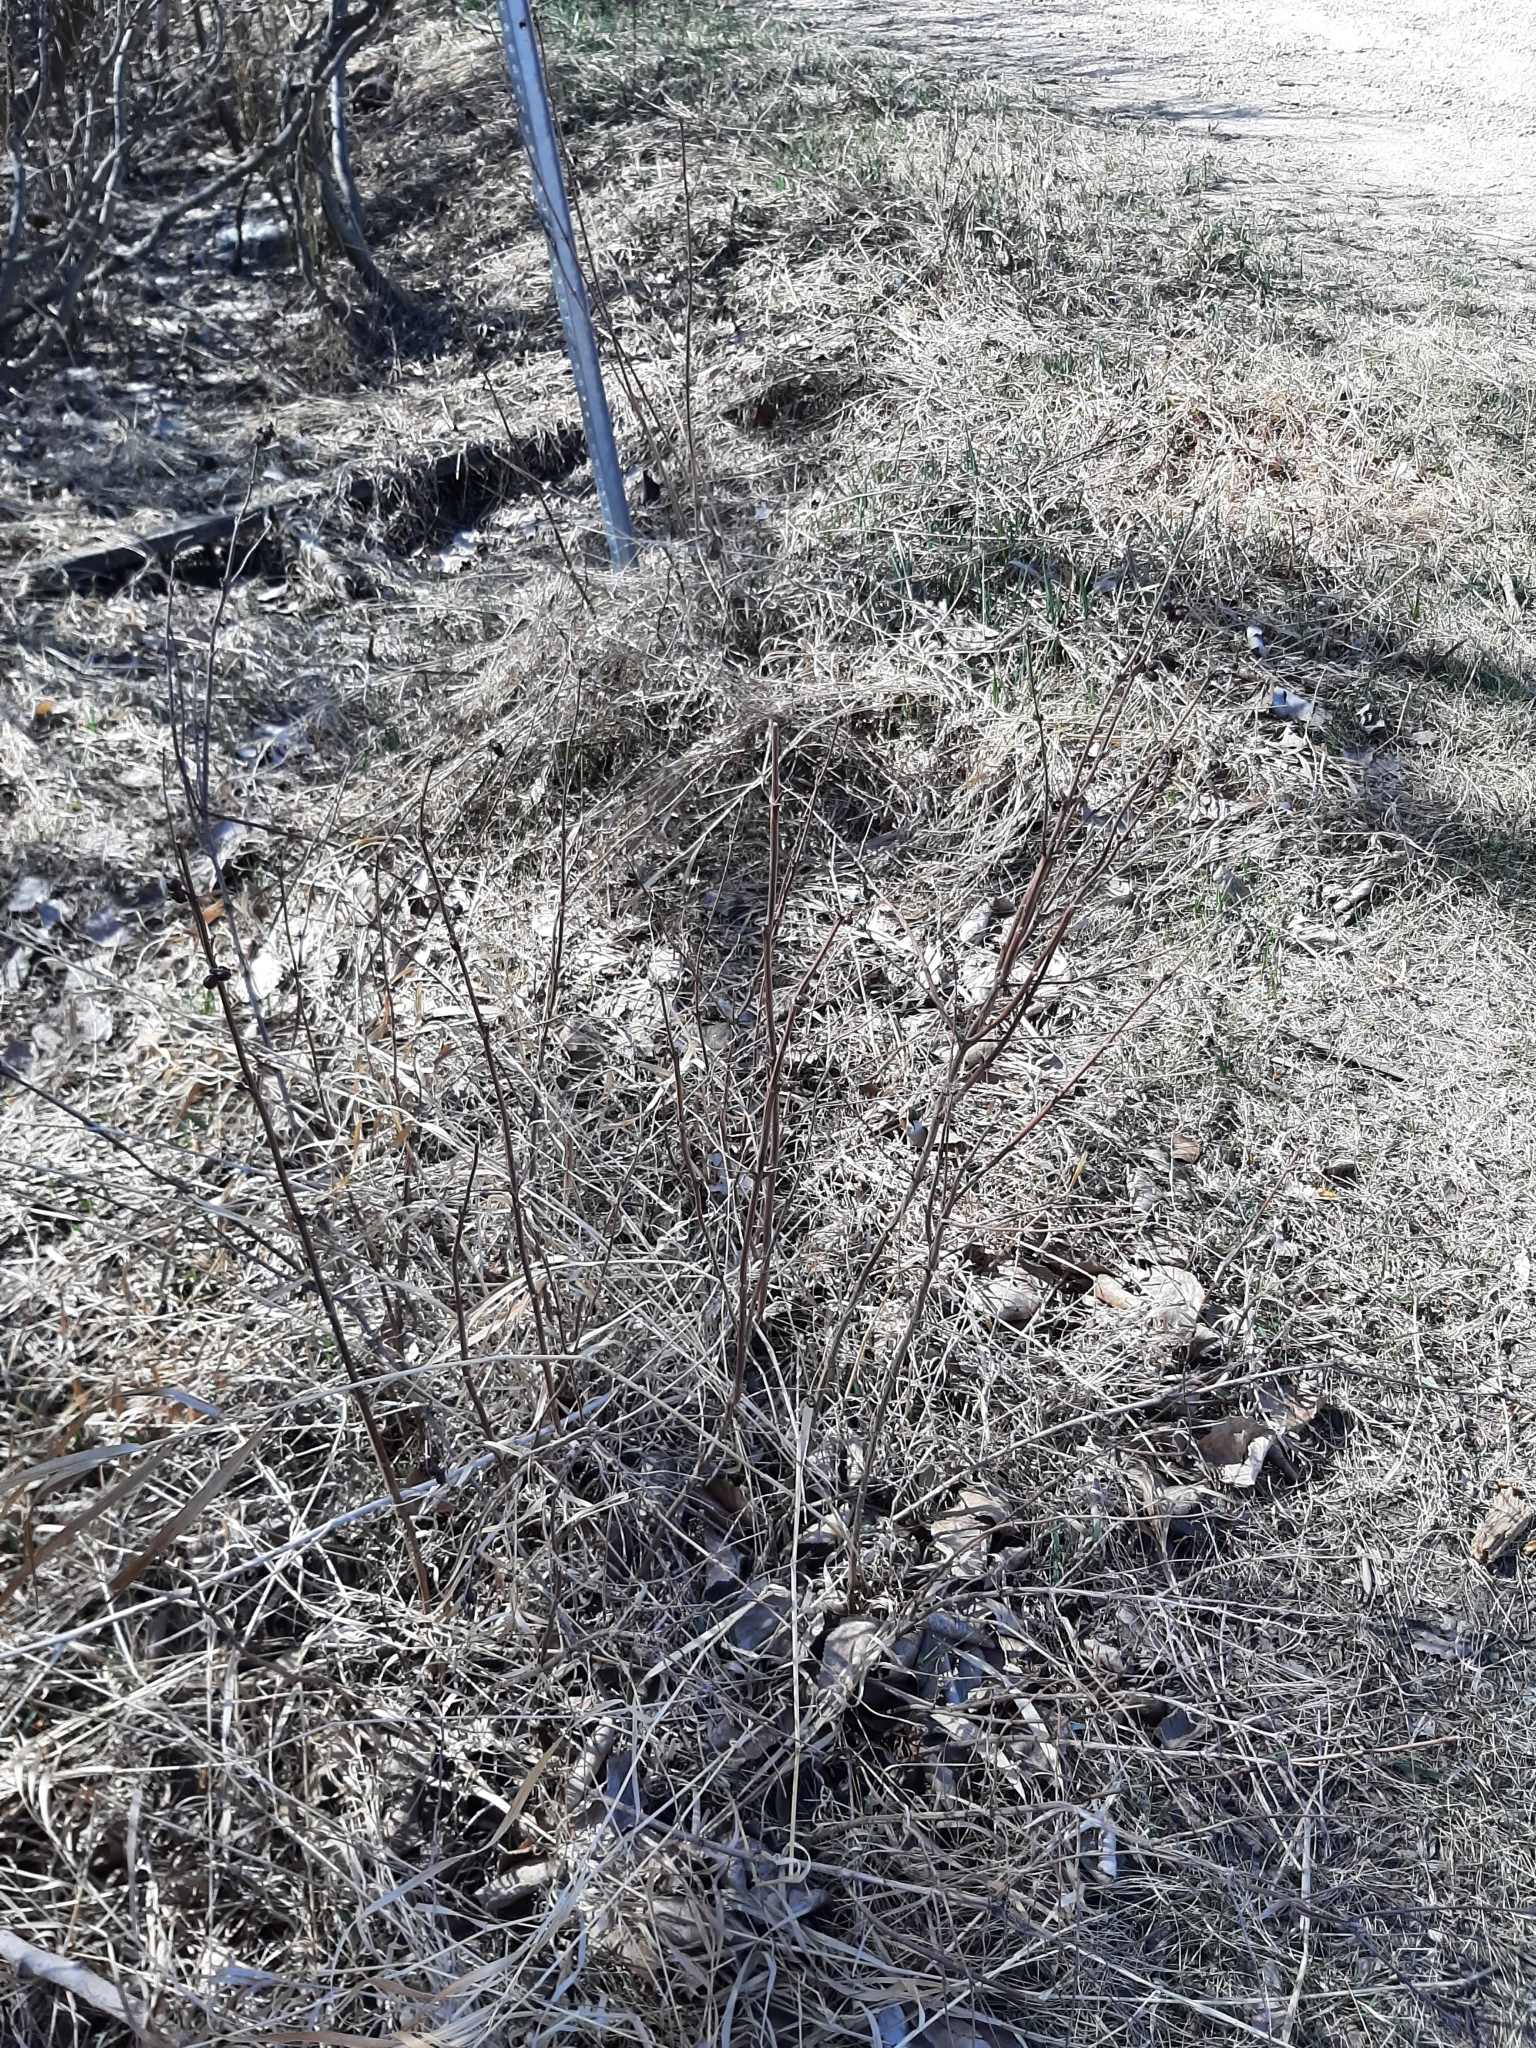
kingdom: Plantae
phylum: Tracheophyta
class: Magnoliopsida
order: Dipsacales
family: Caprifoliaceae
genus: Symphoricarpos
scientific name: Symphoricarpos occidentalis
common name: Wolfberry
